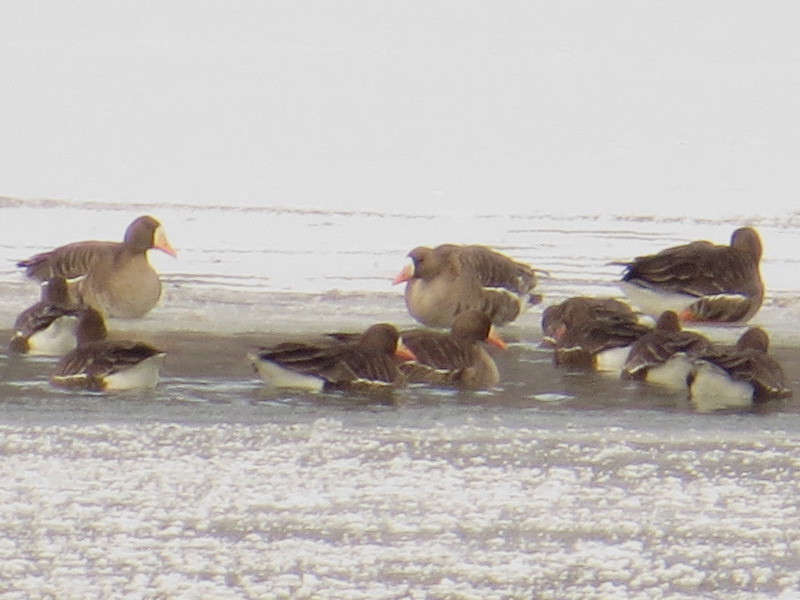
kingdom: Animalia
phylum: Chordata
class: Aves
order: Anseriformes
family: Anatidae
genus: Anser
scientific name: Anser albifrons
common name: Greater white-fronted goose
